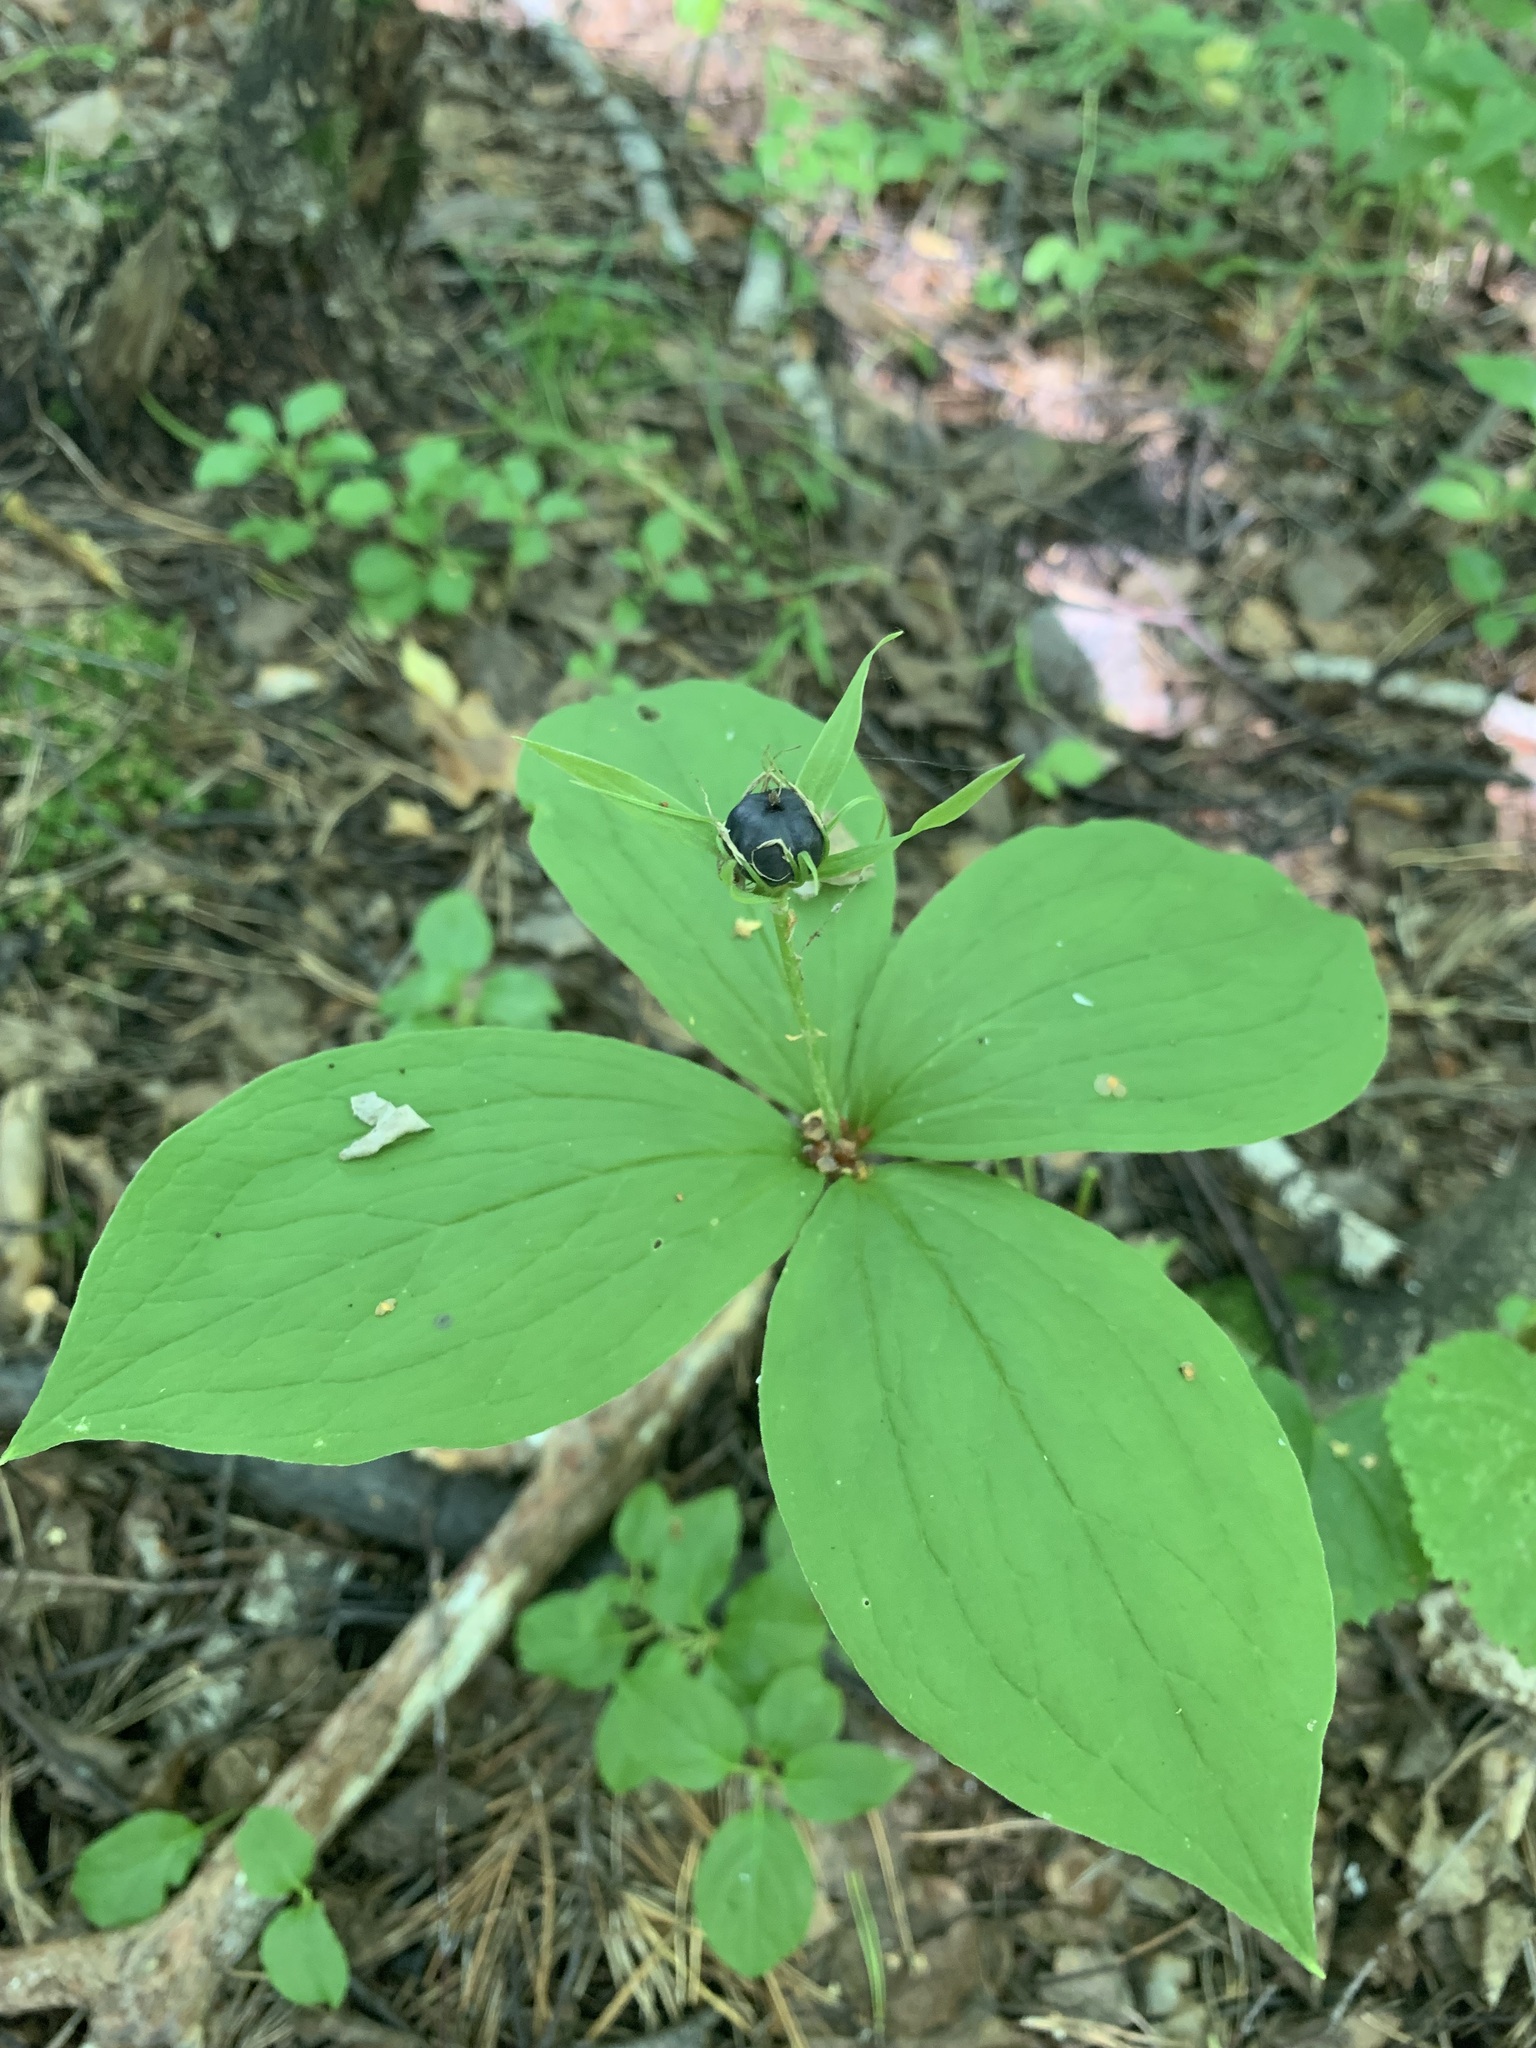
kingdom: Plantae
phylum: Tracheophyta
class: Liliopsida
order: Liliales
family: Melanthiaceae
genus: Paris
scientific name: Paris quadrifolia
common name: Herb-paris
